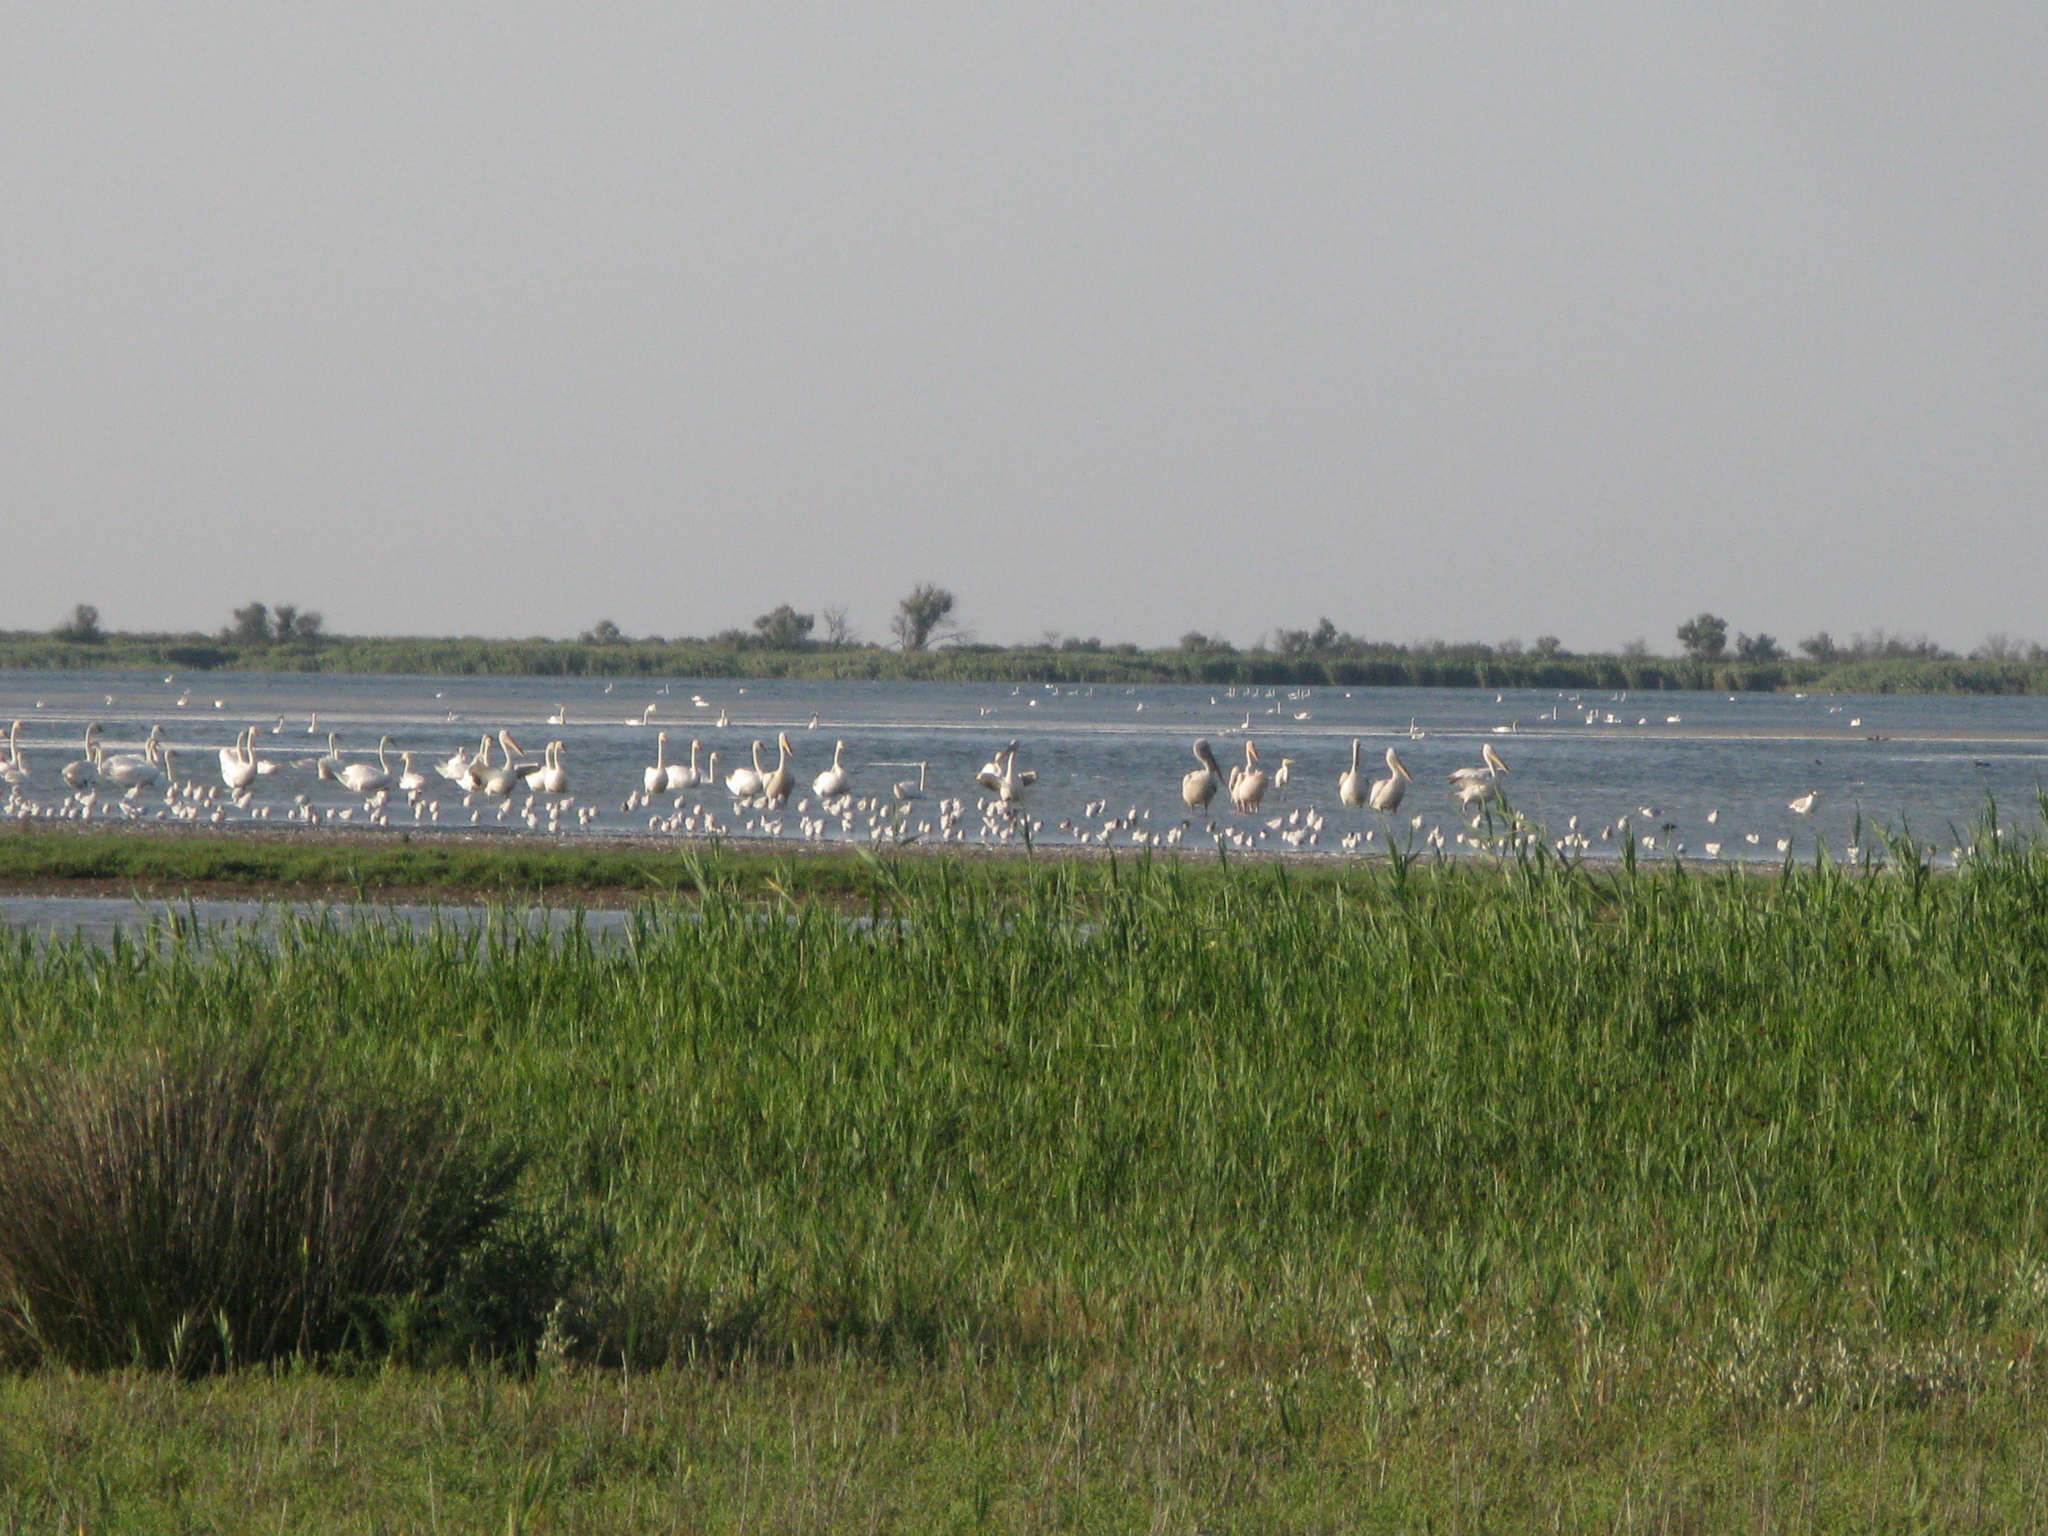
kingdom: Animalia
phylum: Chordata
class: Aves
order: Pelecaniformes
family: Pelecanidae
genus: Pelecanus
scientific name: Pelecanus onocrotalus
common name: Great white pelican
